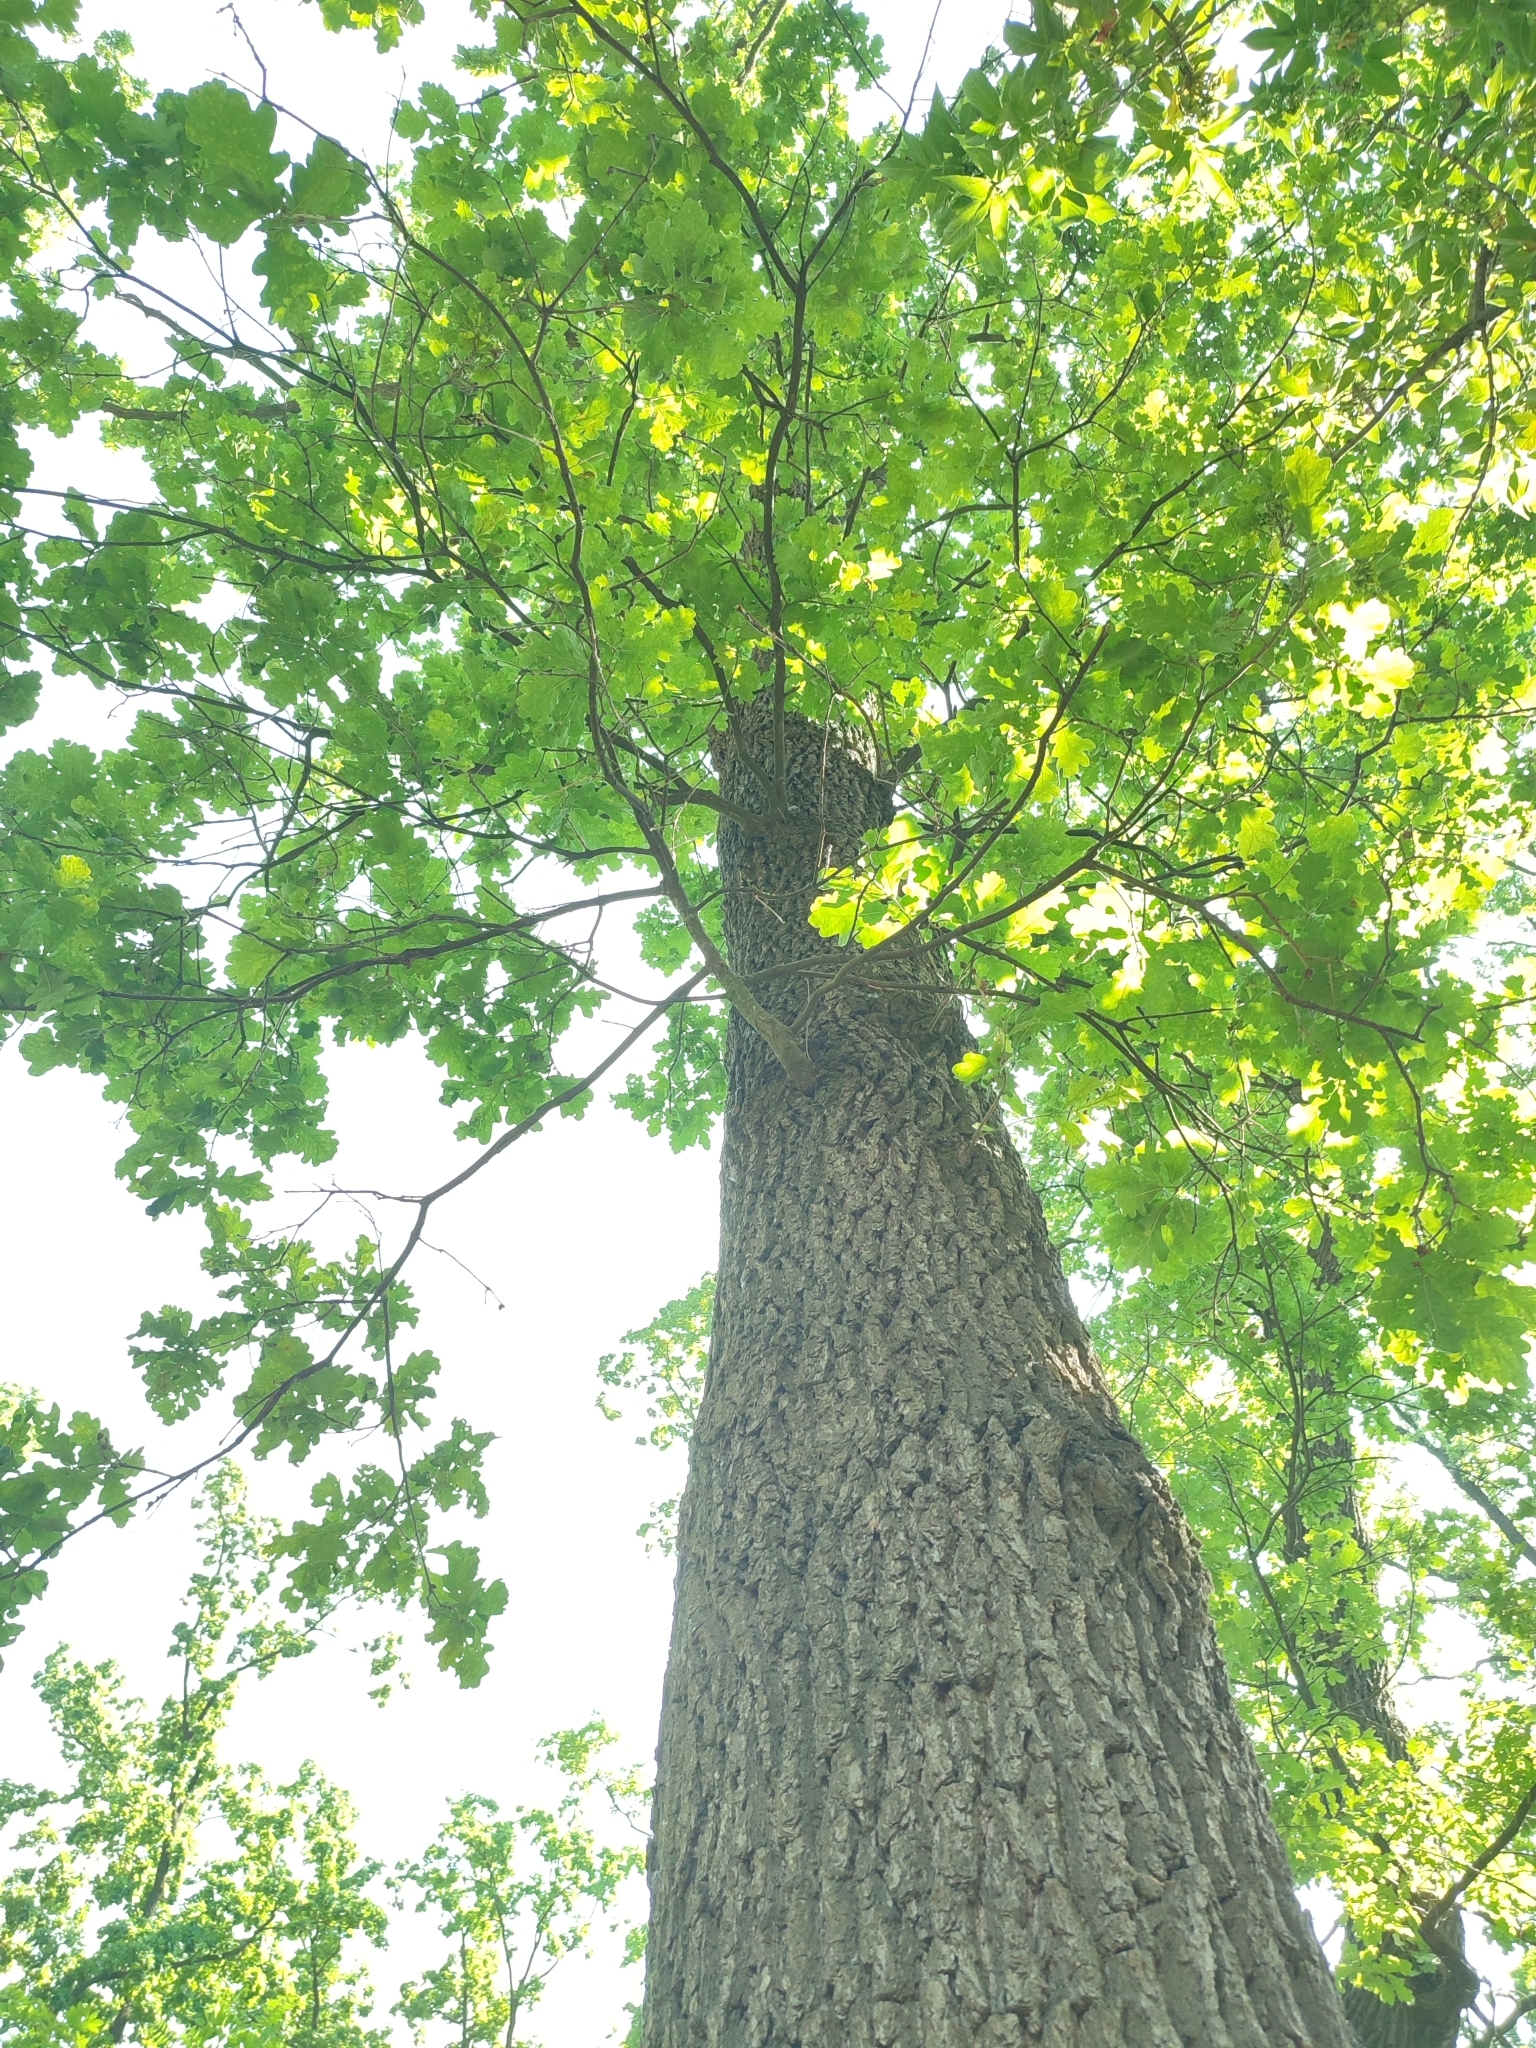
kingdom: Plantae
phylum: Tracheophyta
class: Magnoliopsida
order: Fagales
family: Fagaceae
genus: Quercus
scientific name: Quercus robur
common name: Pedunculate oak
